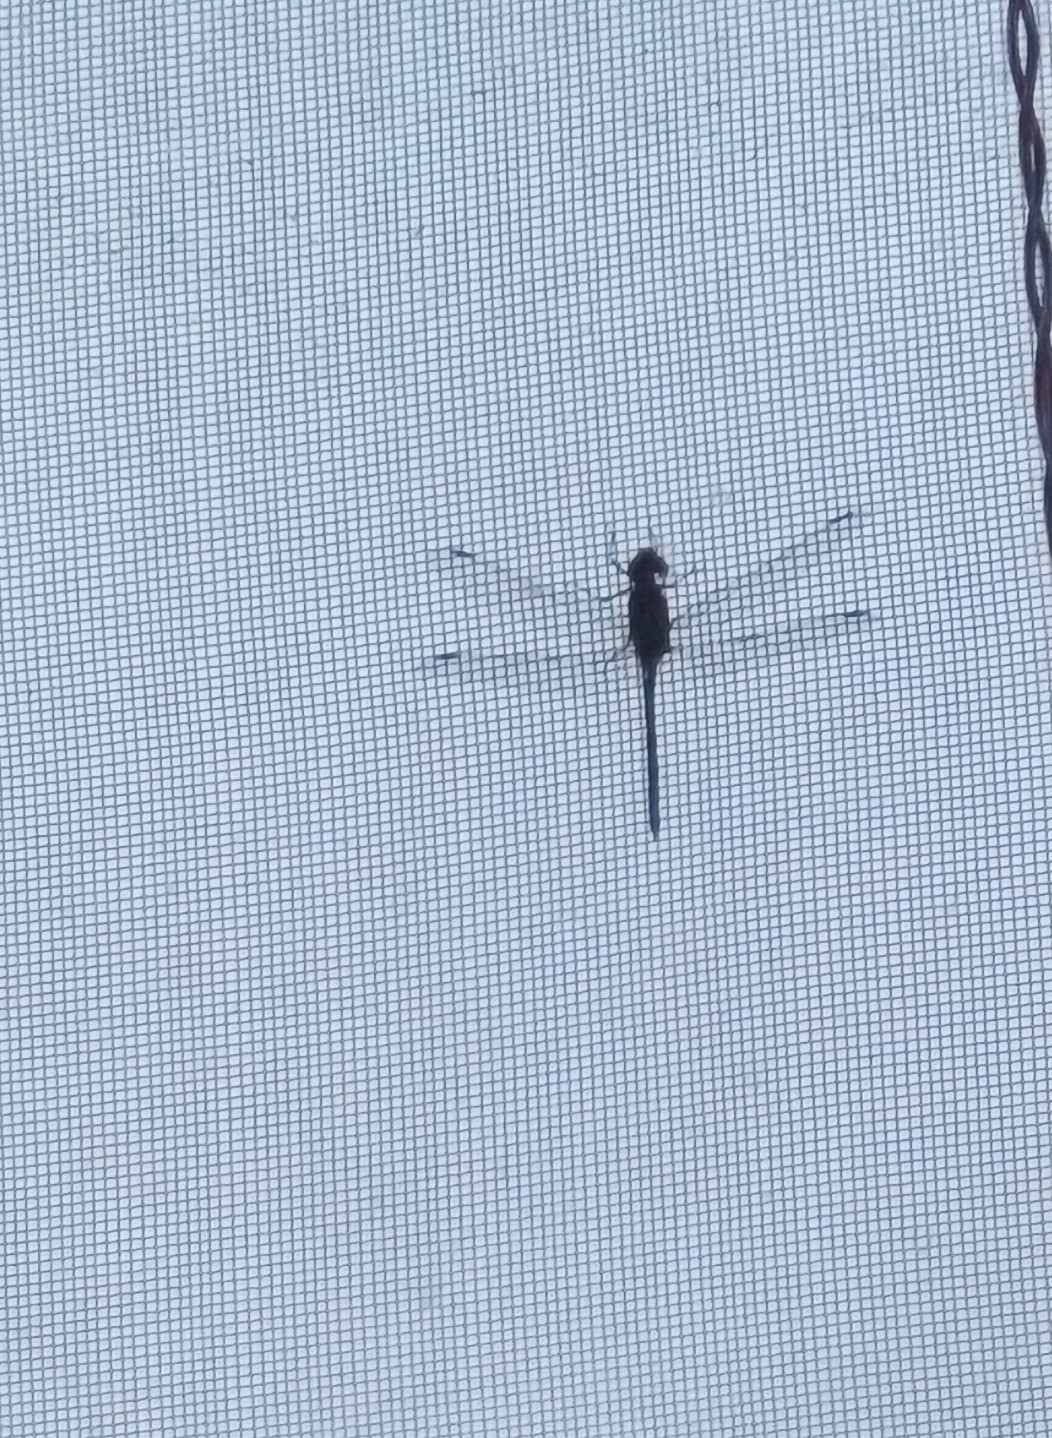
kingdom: Animalia
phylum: Arthropoda
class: Insecta
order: Odonata
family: Libellulidae
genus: Bradinopyga
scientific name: Bradinopyga geminata
